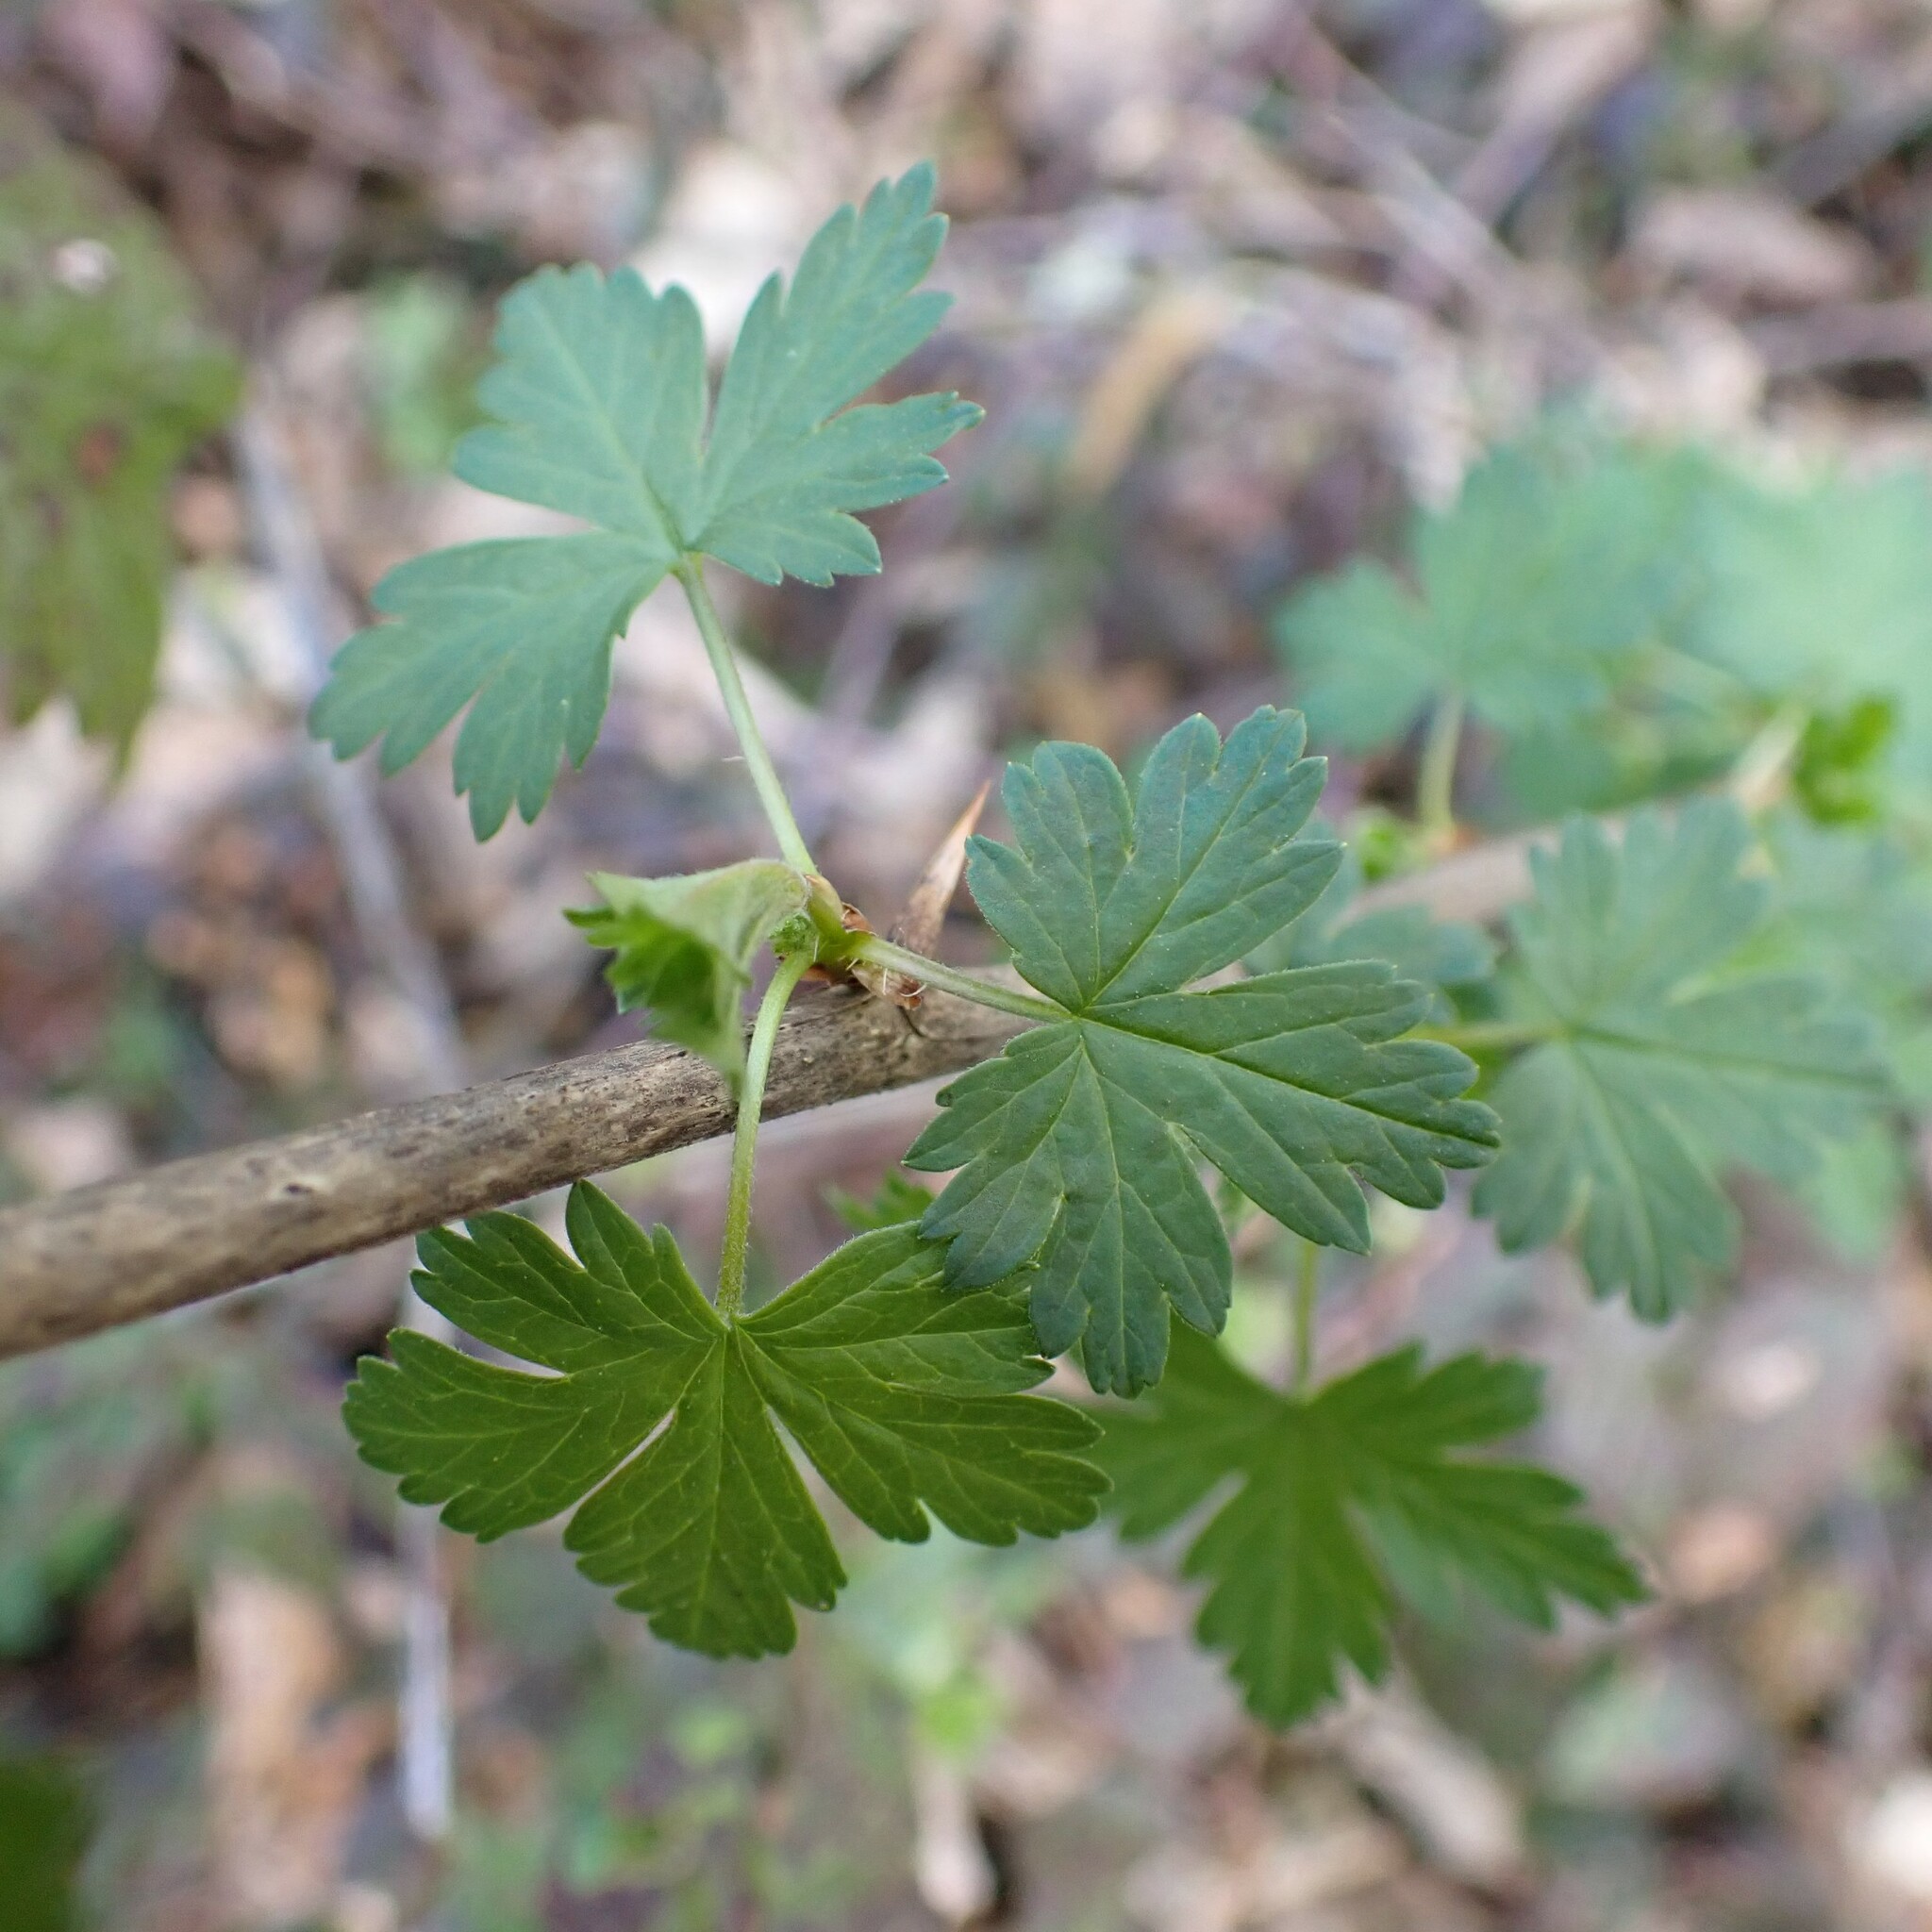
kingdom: Plantae
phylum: Tracheophyta
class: Magnoliopsida
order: Saxifragales
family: Grossulariaceae
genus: Ribes
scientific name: Ribes divaricatum
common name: Wild black gooseberry
